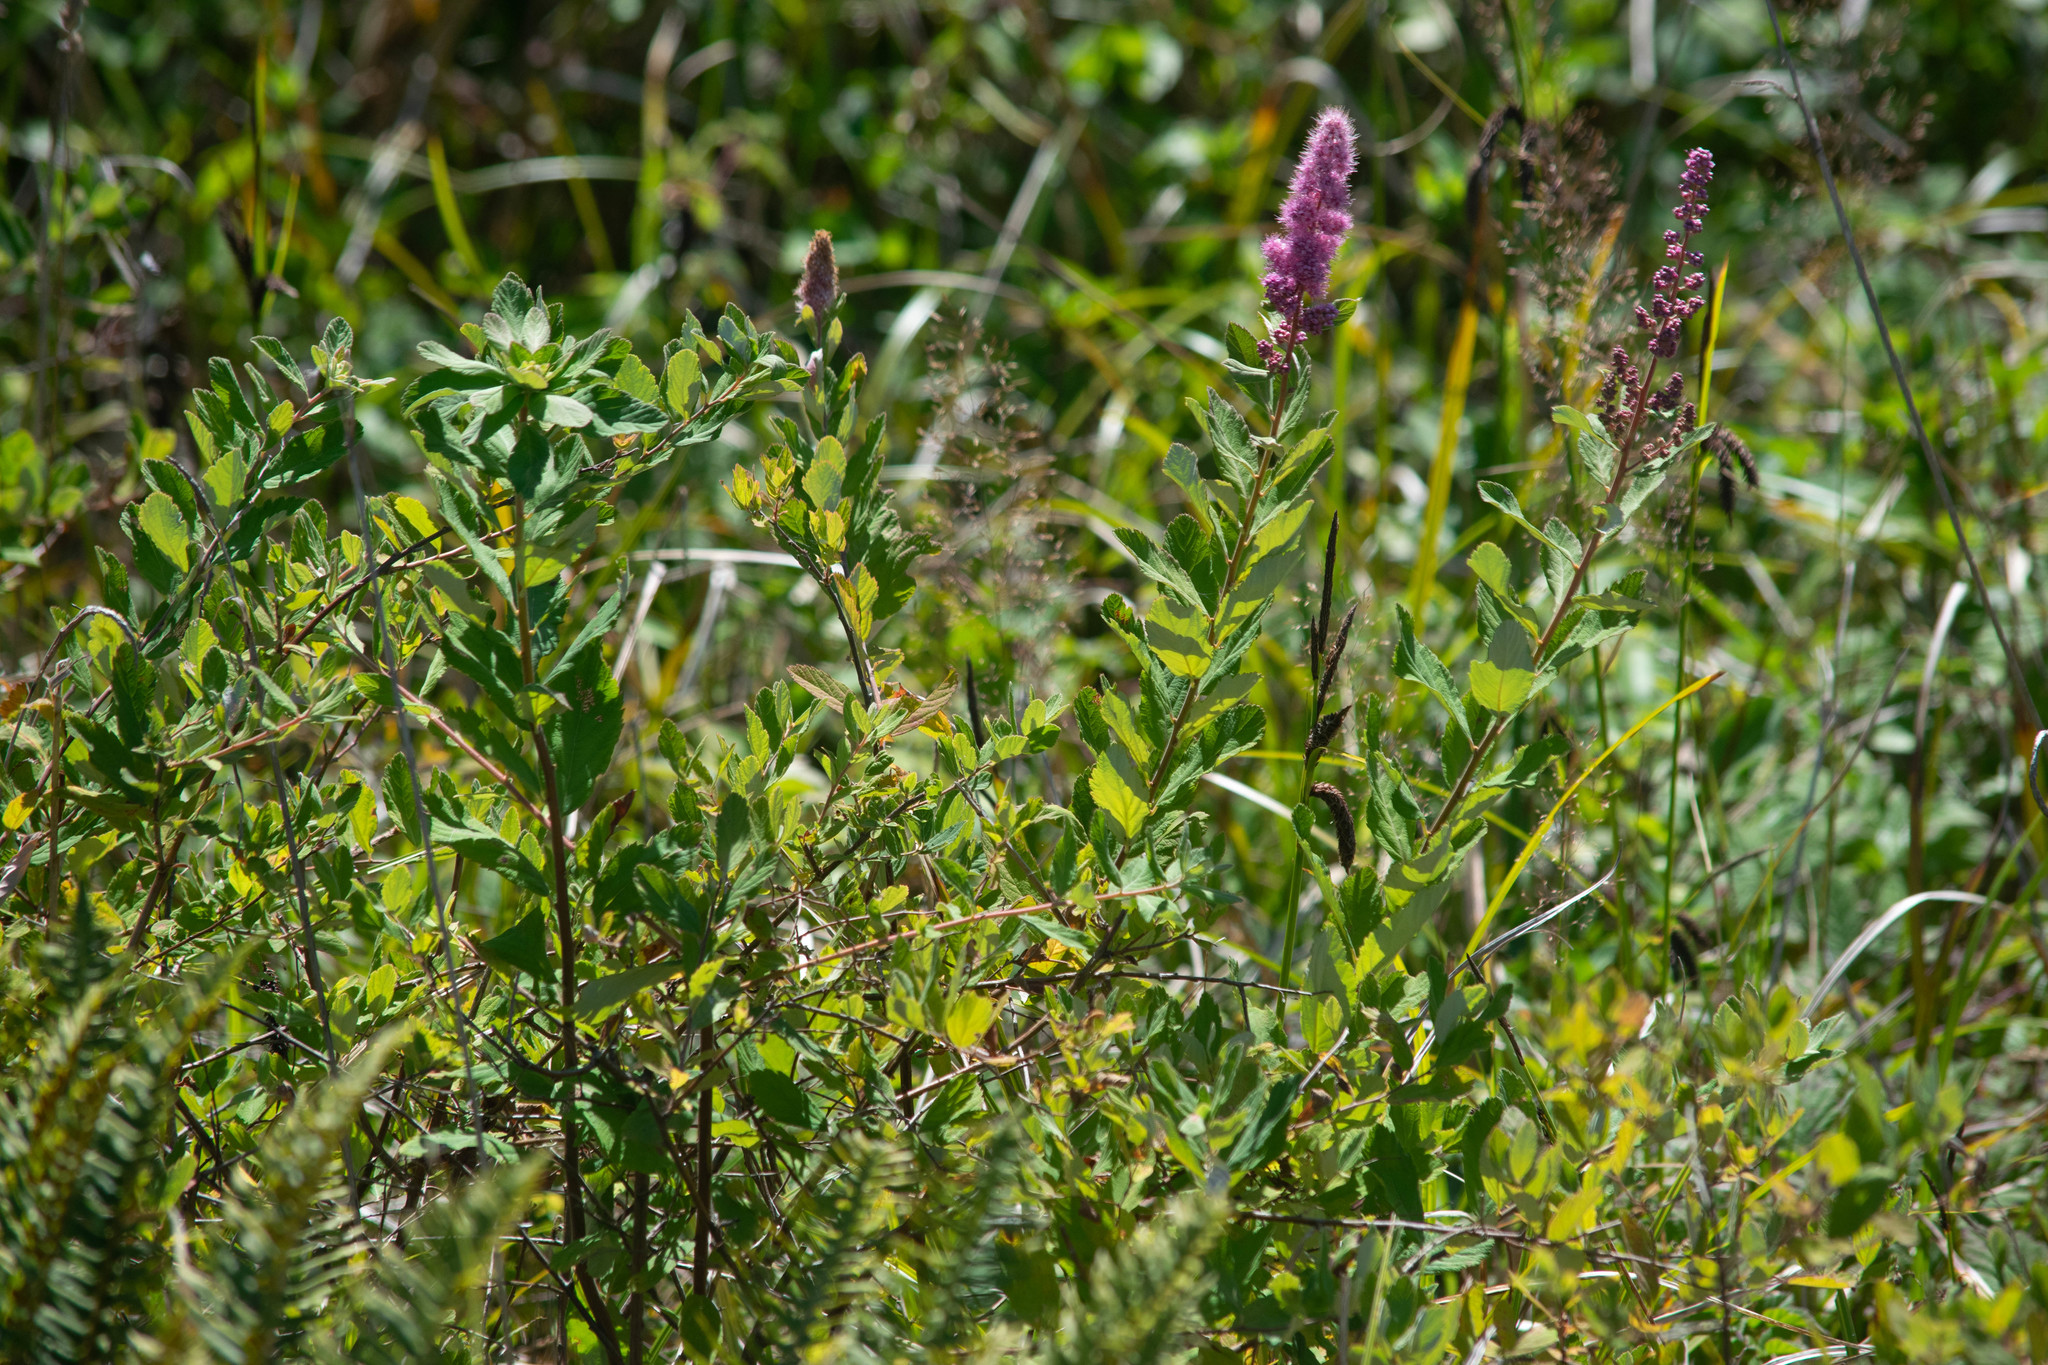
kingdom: Plantae
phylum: Tracheophyta
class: Magnoliopsida
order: Rosales
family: Rosaceae
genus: Spiraea
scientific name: Spiraea douglasii
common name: Steeplebush
